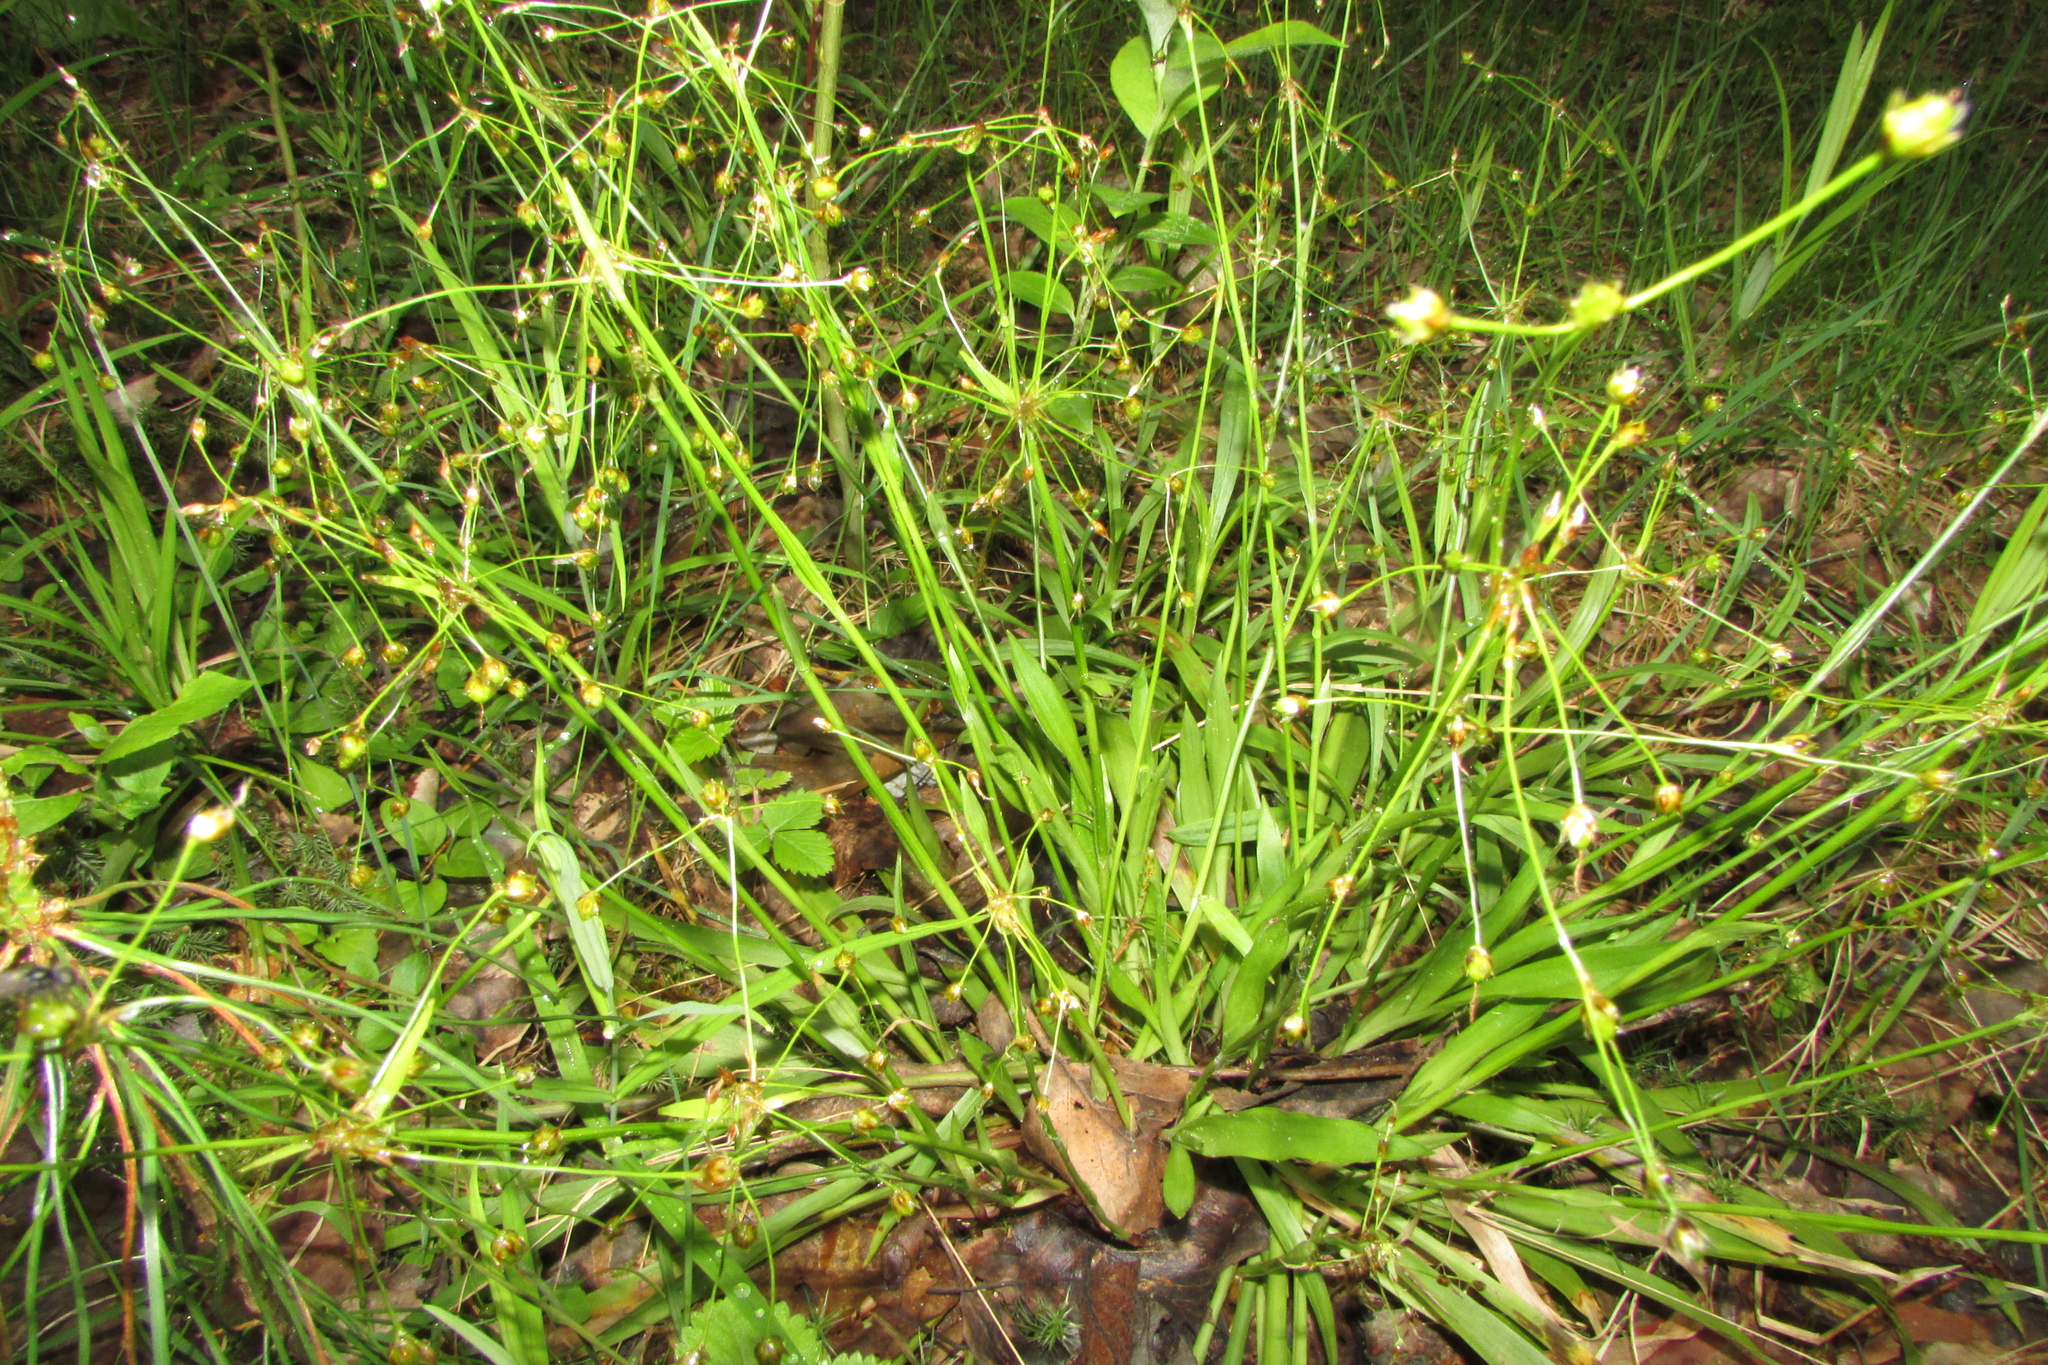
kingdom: Plantae
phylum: Tracheophyta
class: Liliopsida
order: Poales
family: Juncaceae
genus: Luzula
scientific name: Luzula pilosa
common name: Hairy wood-rush
